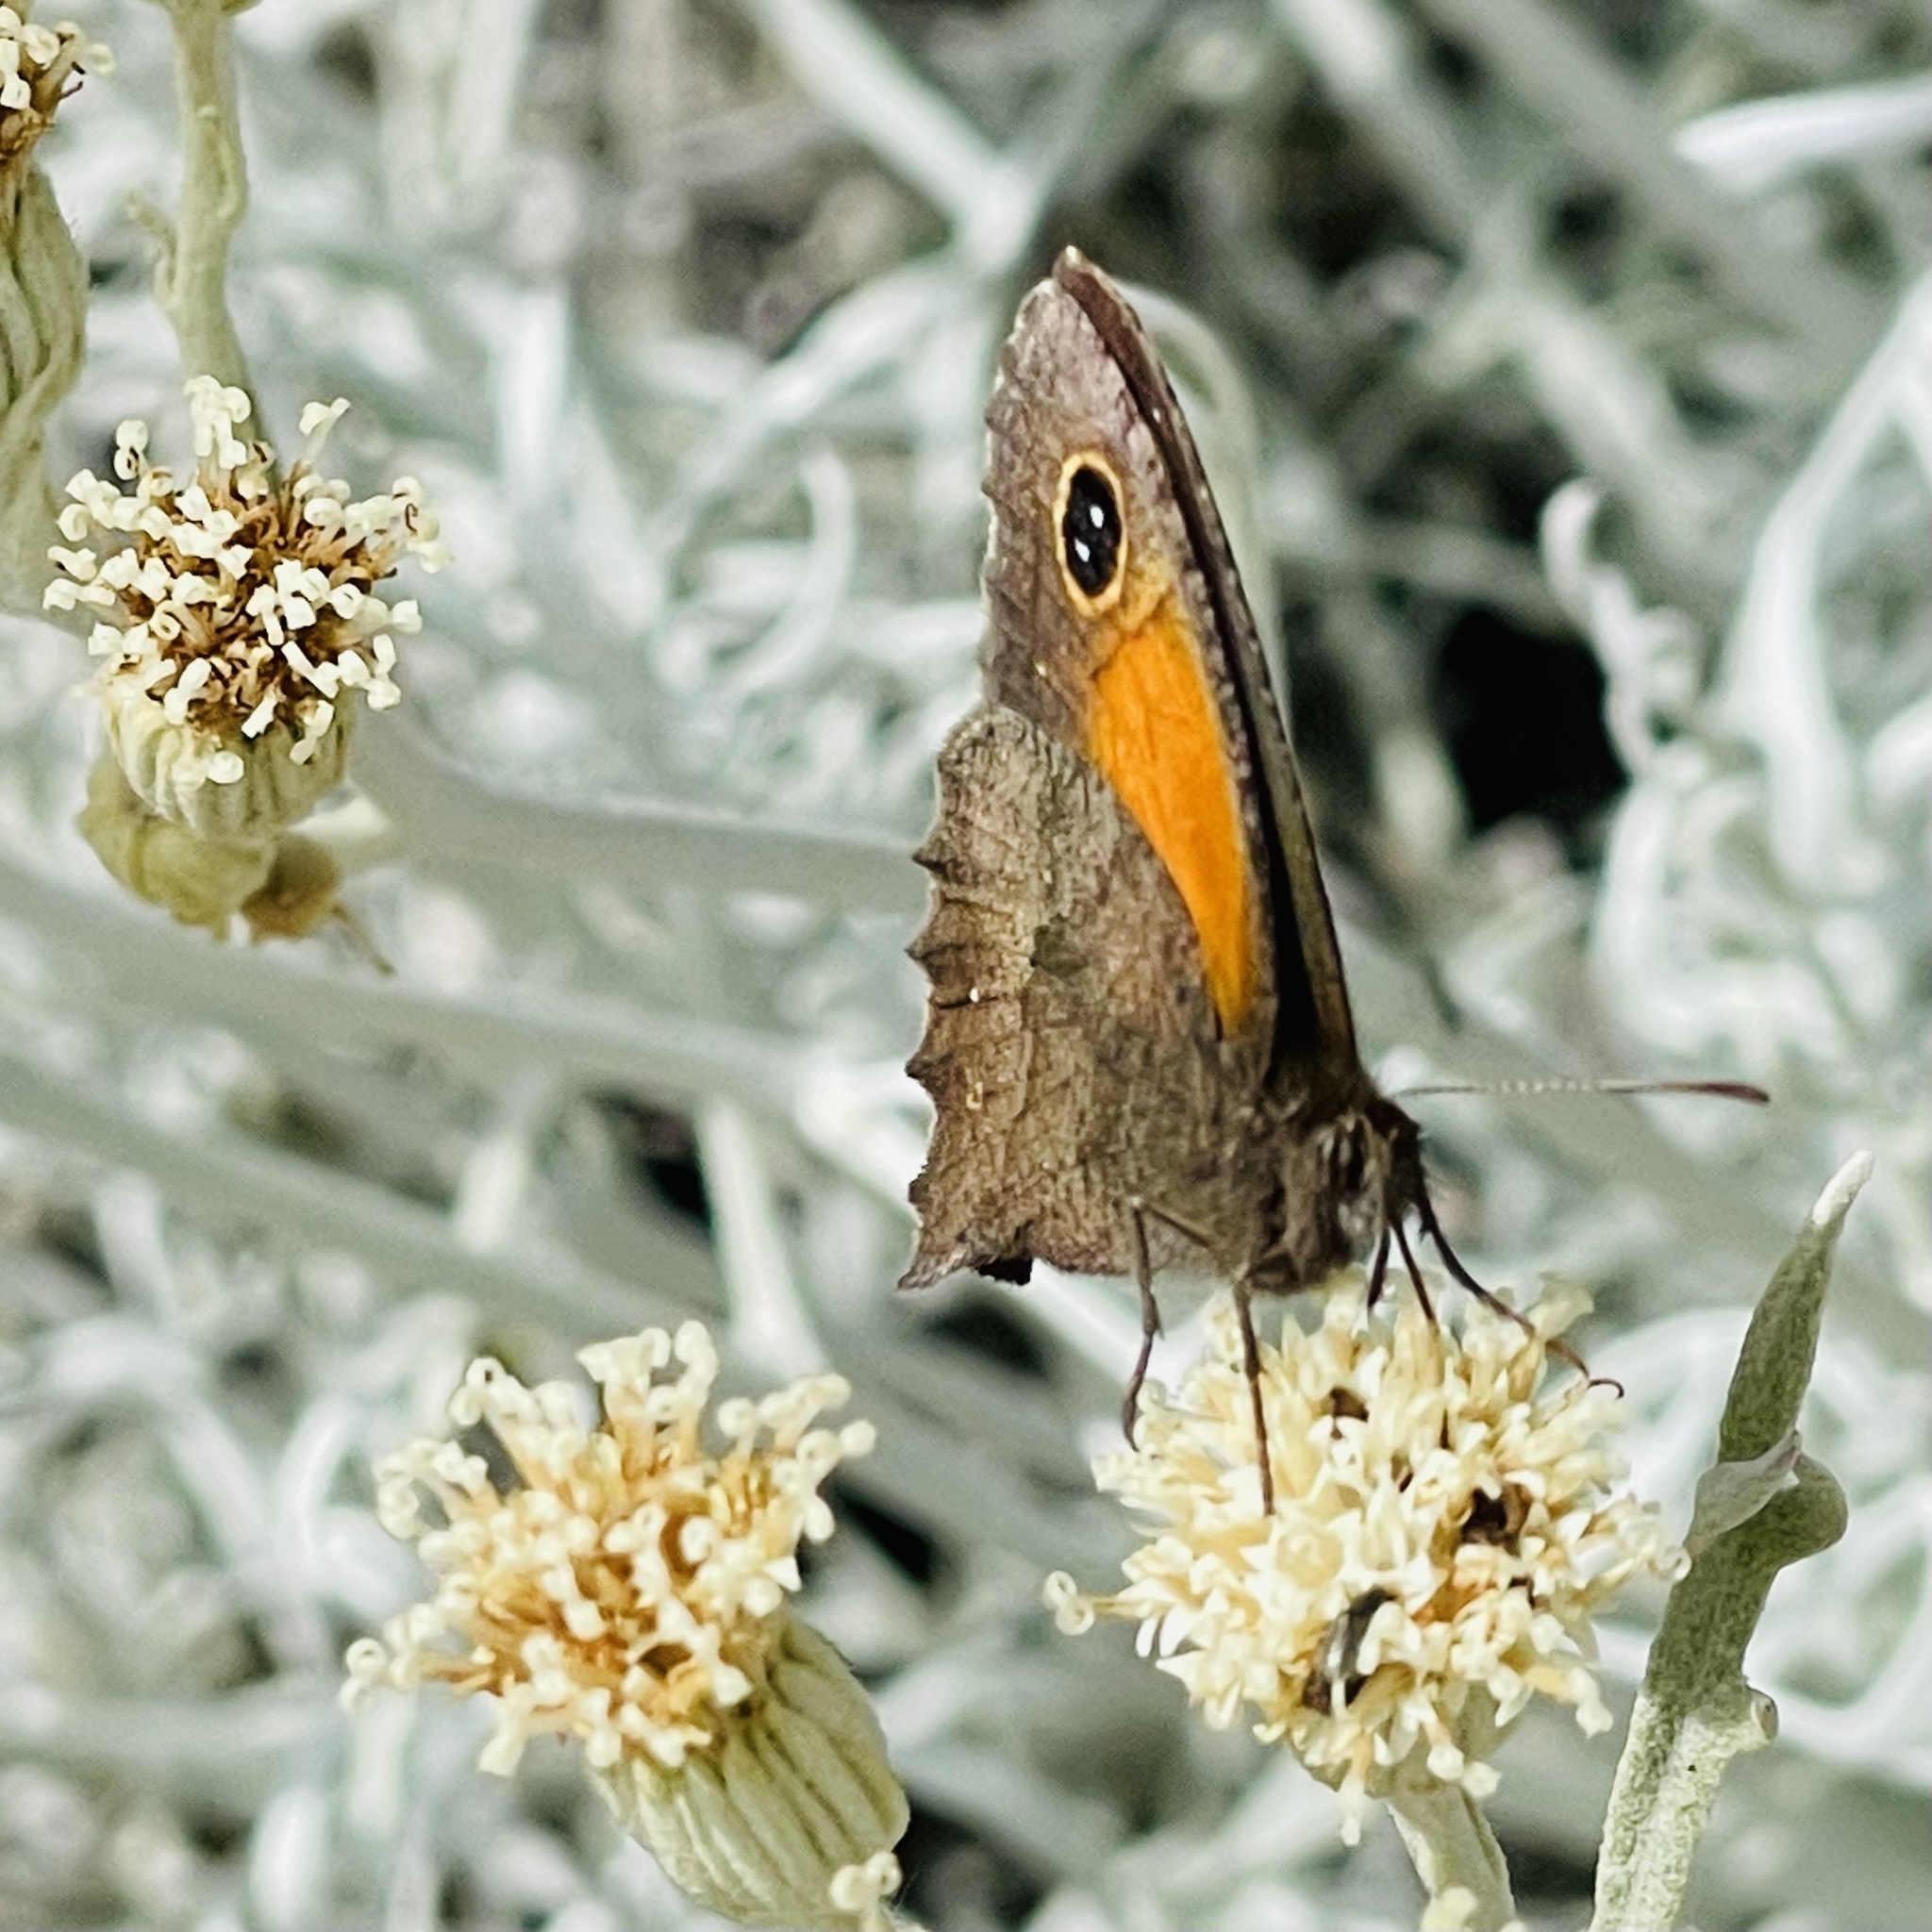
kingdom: Animalia
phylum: Arthropoda
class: Insecta
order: Lepidoptera
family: Nymphalidae
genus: Auca
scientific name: Auca barrosi
